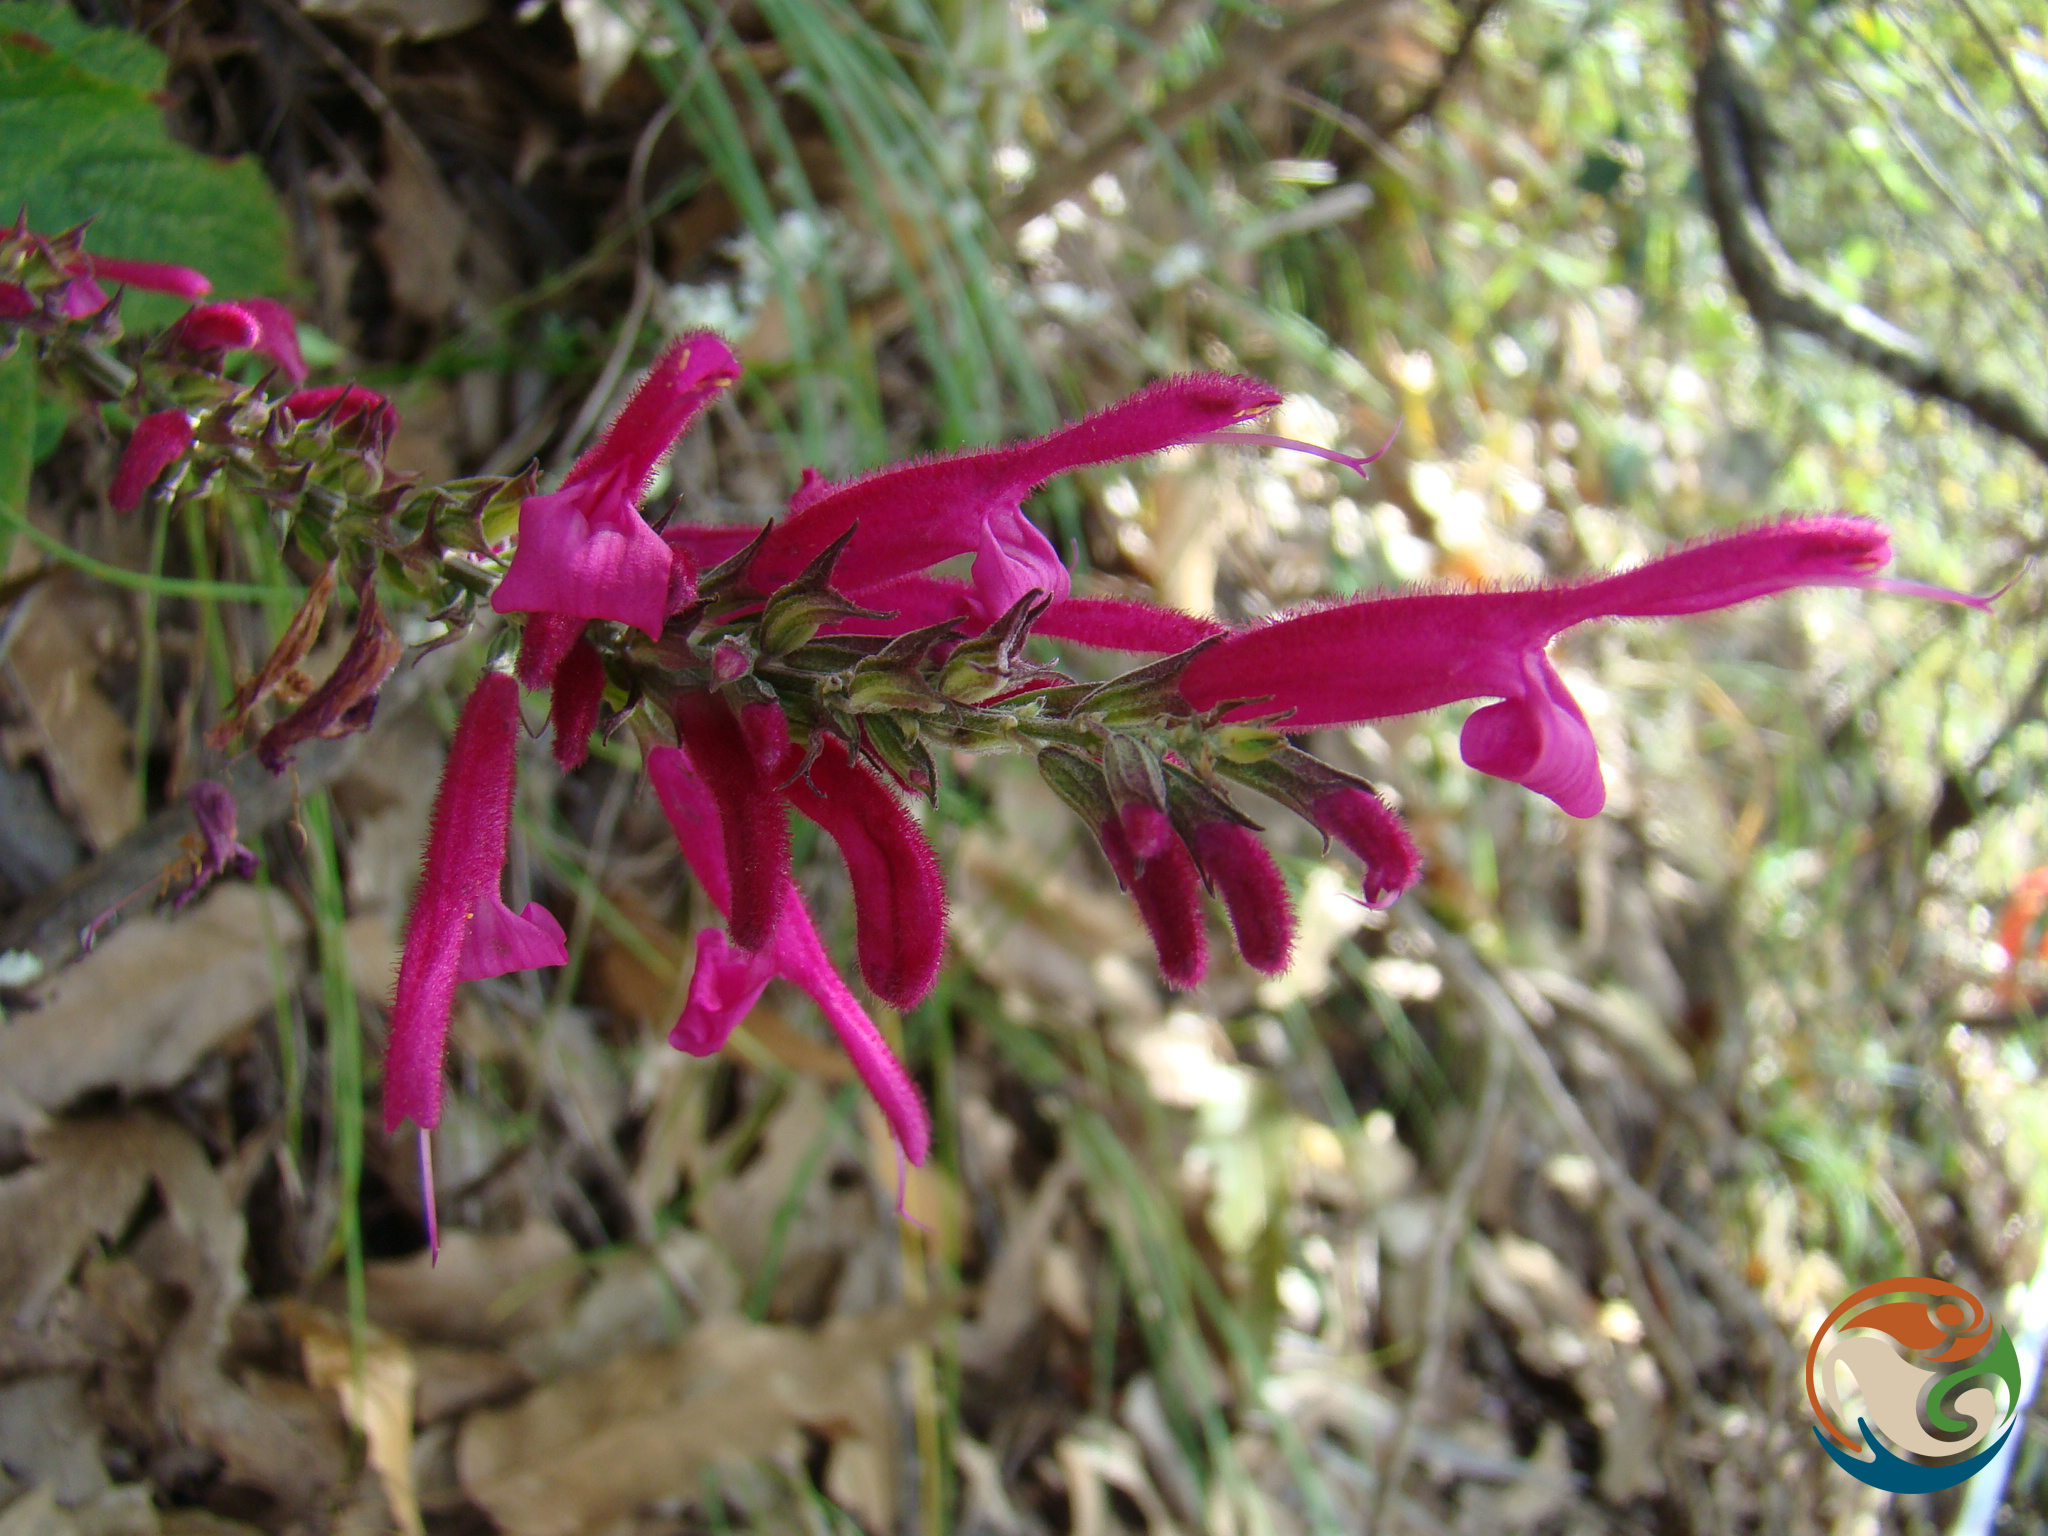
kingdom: Plantae
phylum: Tracheophyta
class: Magnoliopsida
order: Lamiales
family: Lamiaceae
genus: Salvia
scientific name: Salvia littae
